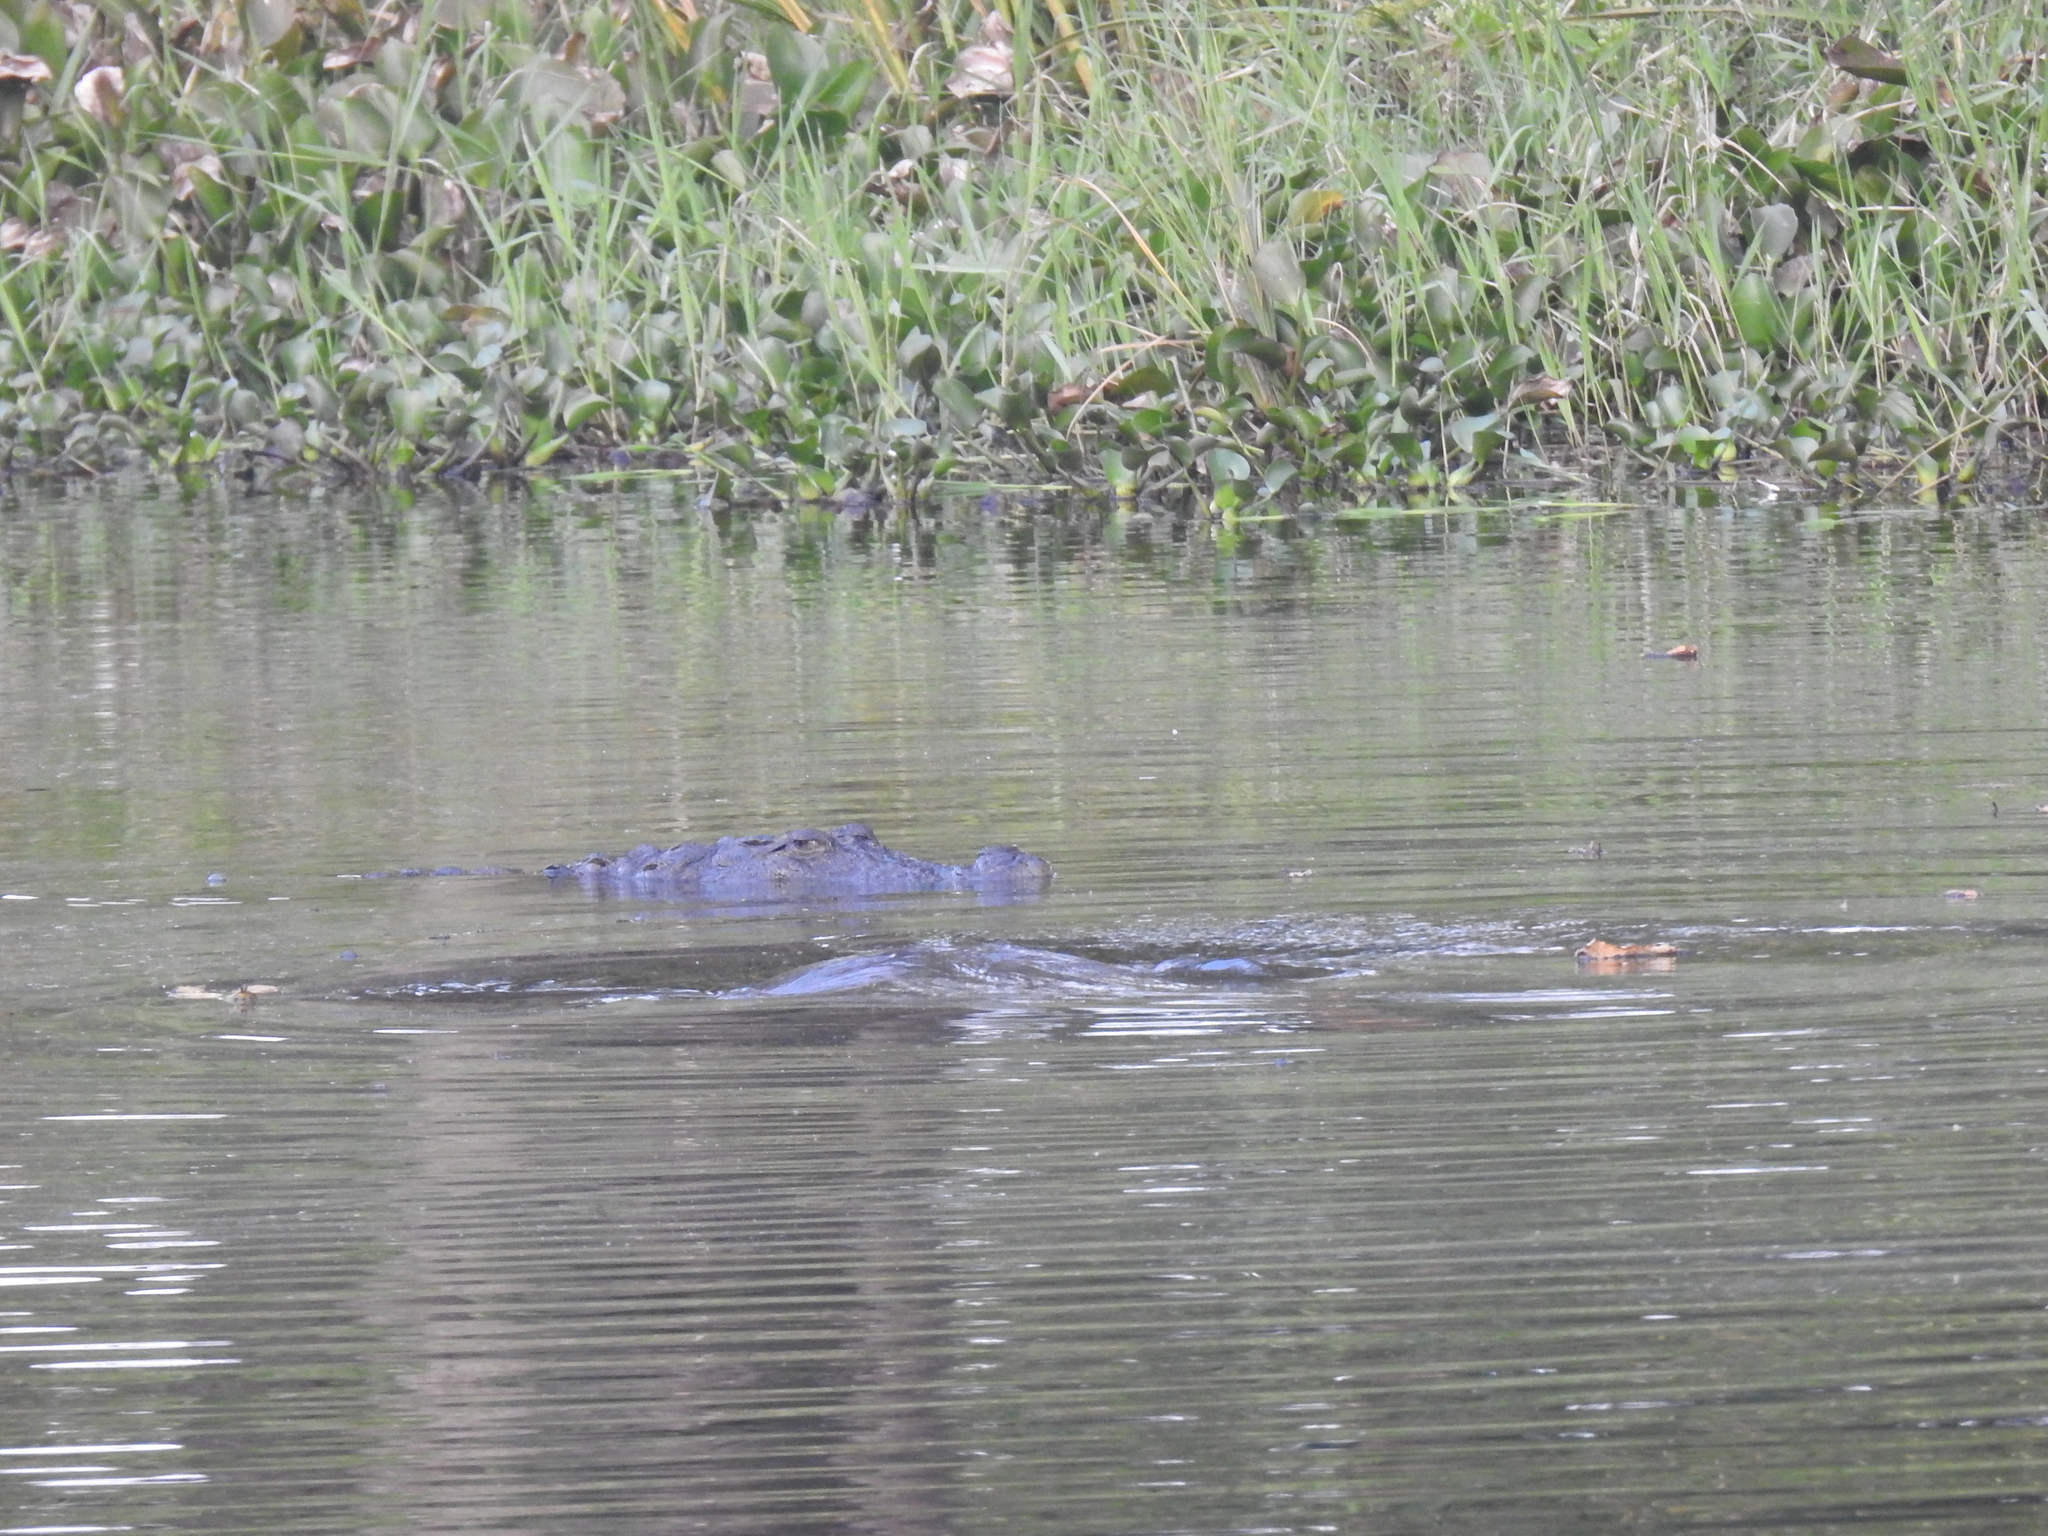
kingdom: Animalia
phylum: Chordata
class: Crocodylia
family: Crocodylidae
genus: Crocodylus
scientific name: Crocodylus palustris
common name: Mugger crocodile
